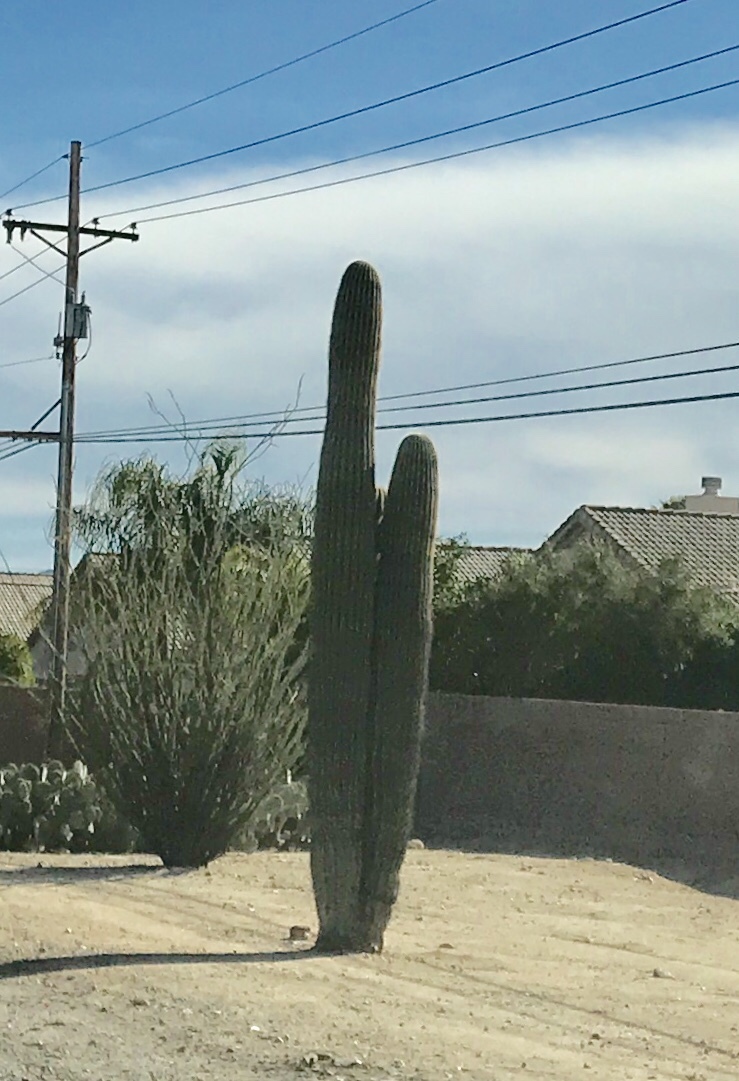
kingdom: Plantae
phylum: Tracheophyta
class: Magnoliopsida
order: Caryophyllales
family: Cactaceae
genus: Carnegiea
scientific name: Carnegiea gigantea
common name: Saguaro
